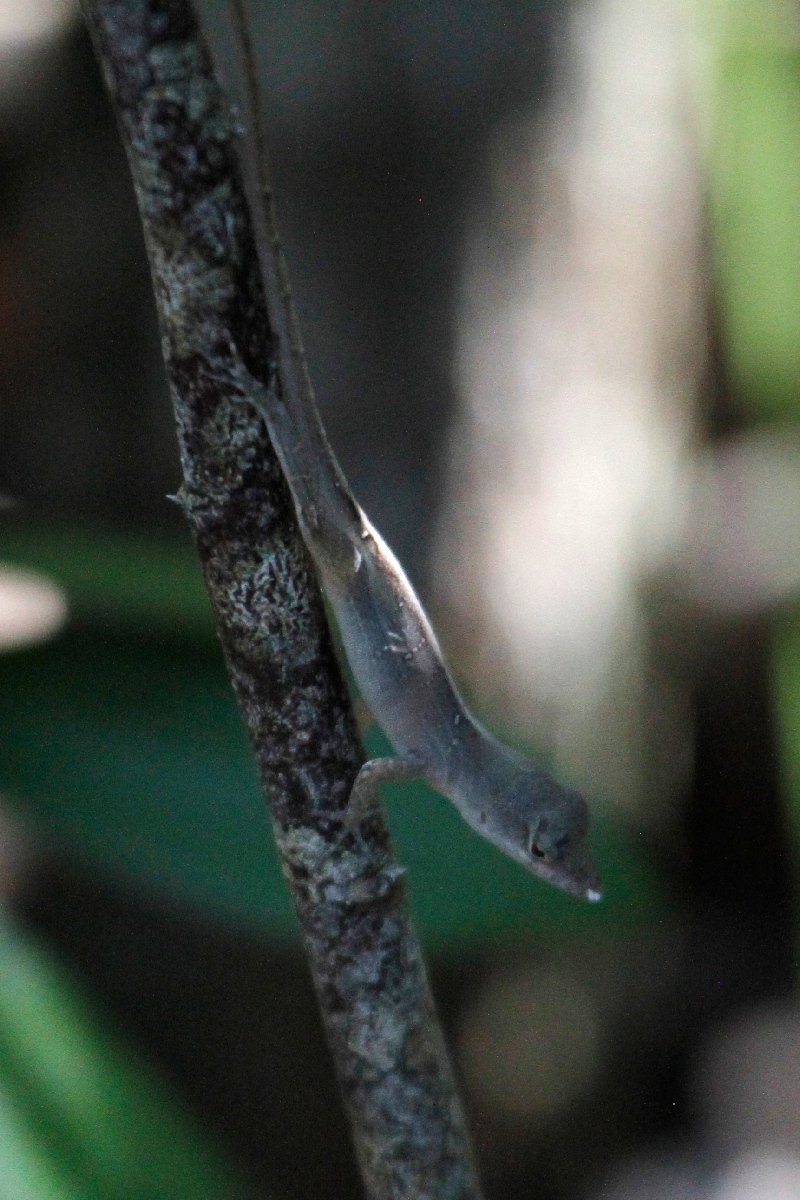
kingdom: Animalia
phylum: Chordata
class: Squamata
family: Dactyloidae
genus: Anolis
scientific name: Anolis sagrei
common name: Brown anole
